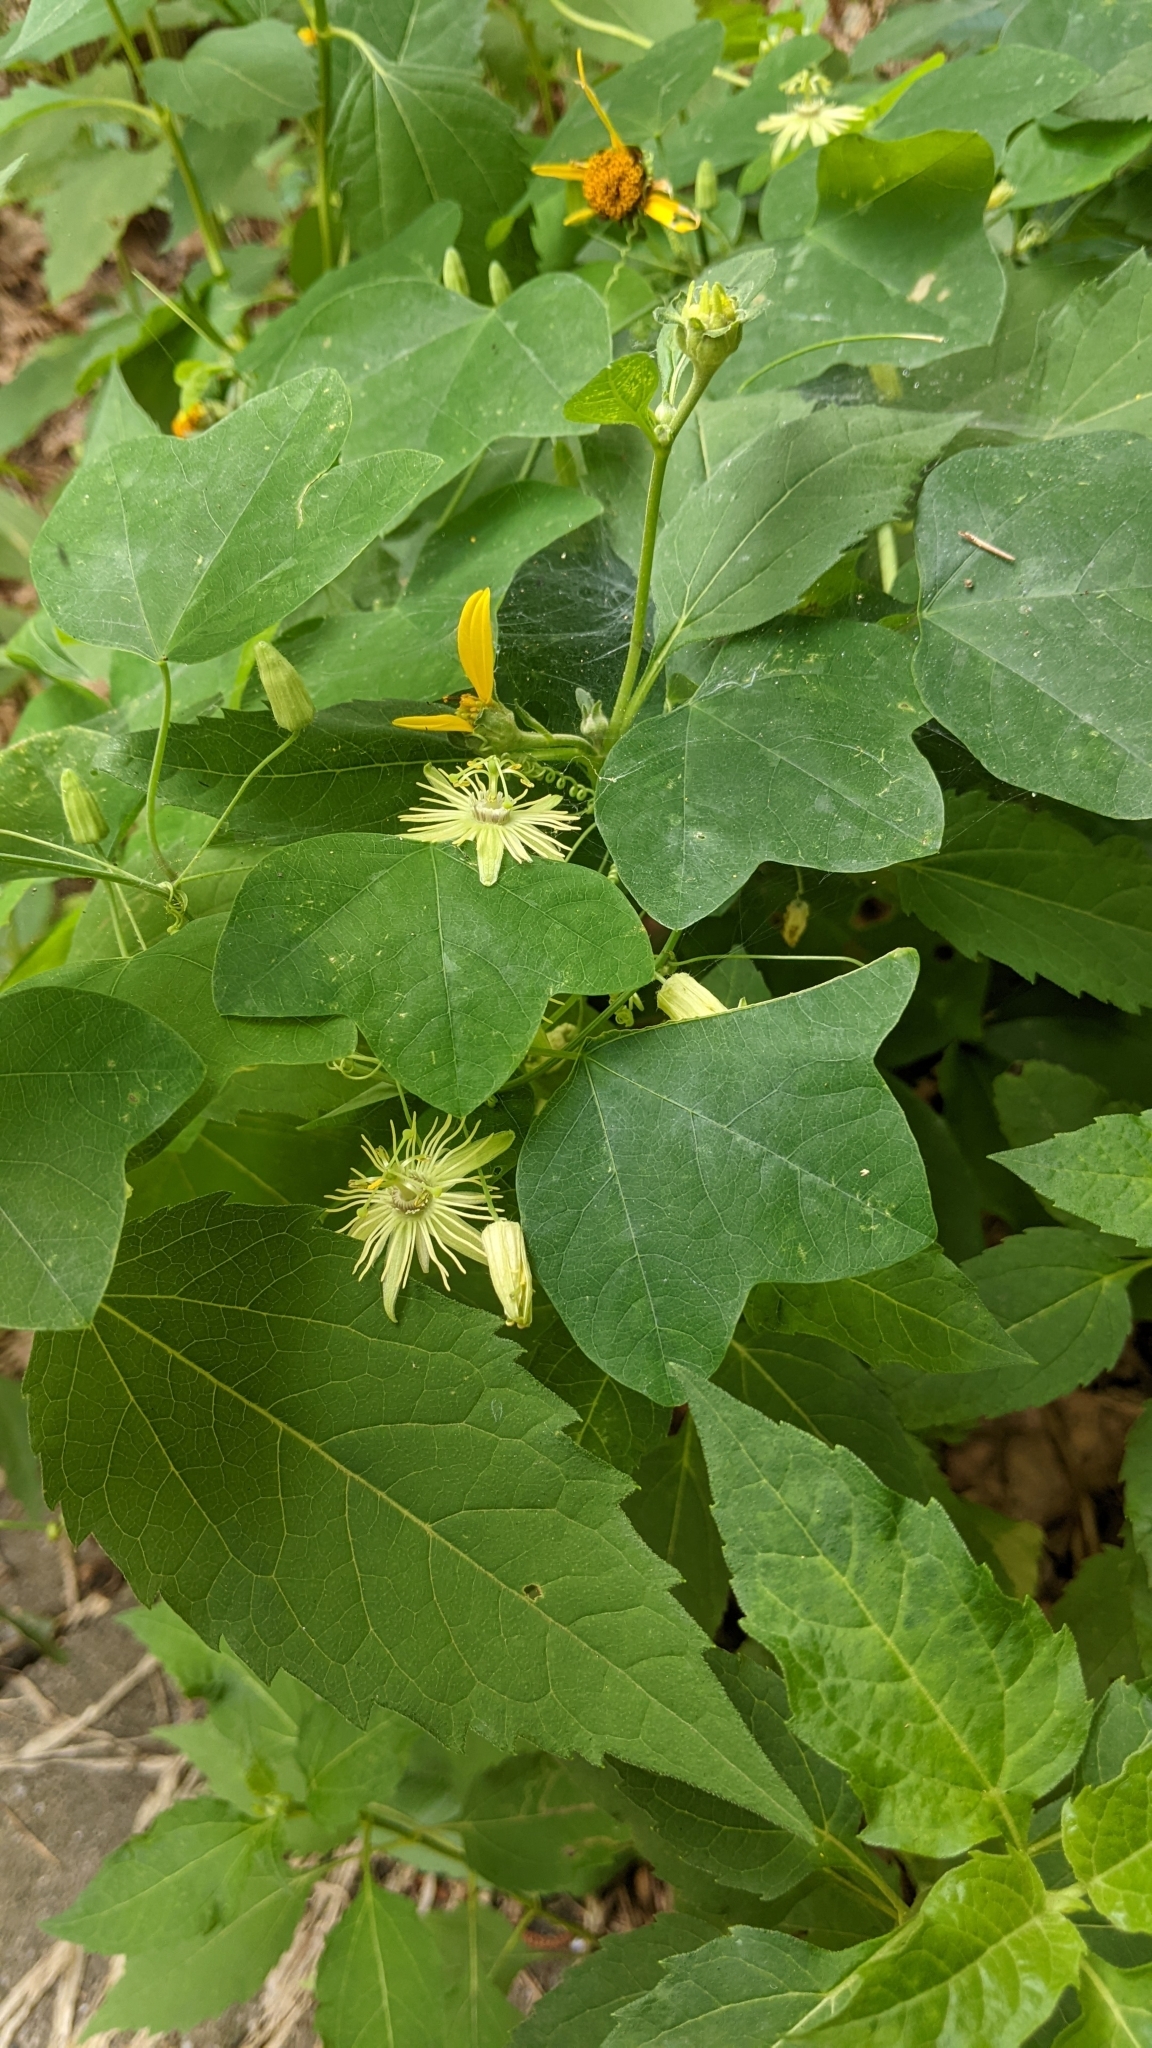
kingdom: Plantae
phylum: Tracheophyta
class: Magnoliopsida
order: Malpighiales
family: Passifloraceae
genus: Passiflora
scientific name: Passiflora lutea
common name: Yellow passionflower
